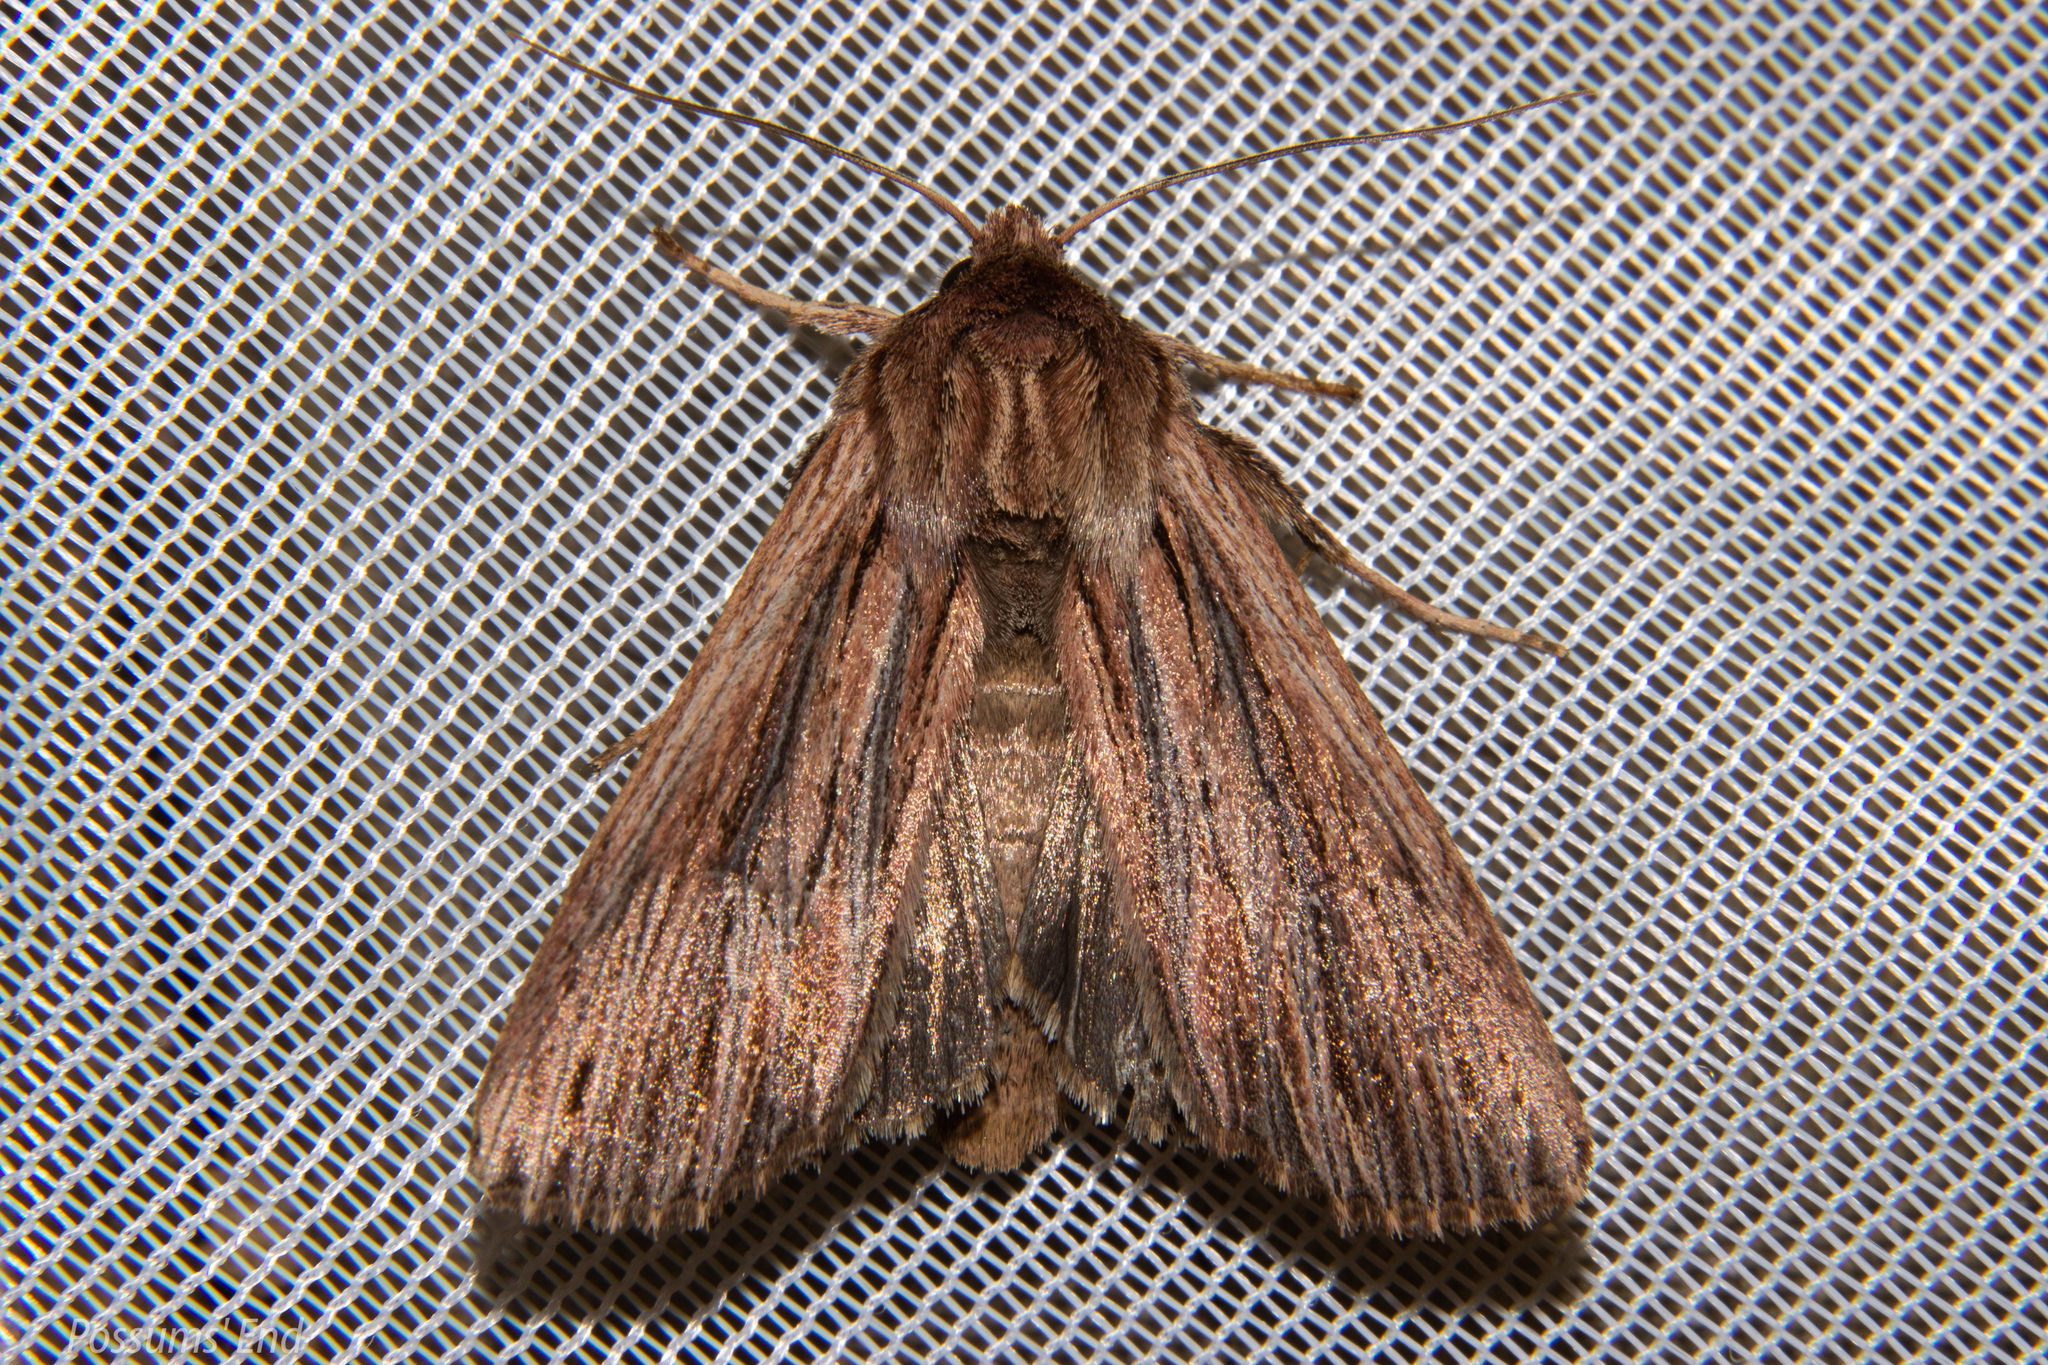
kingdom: Animalia
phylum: Arthropoda
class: Insecta
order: Lepidoptera
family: Noctuidae
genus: Ichneutica
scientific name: Ichneutica
